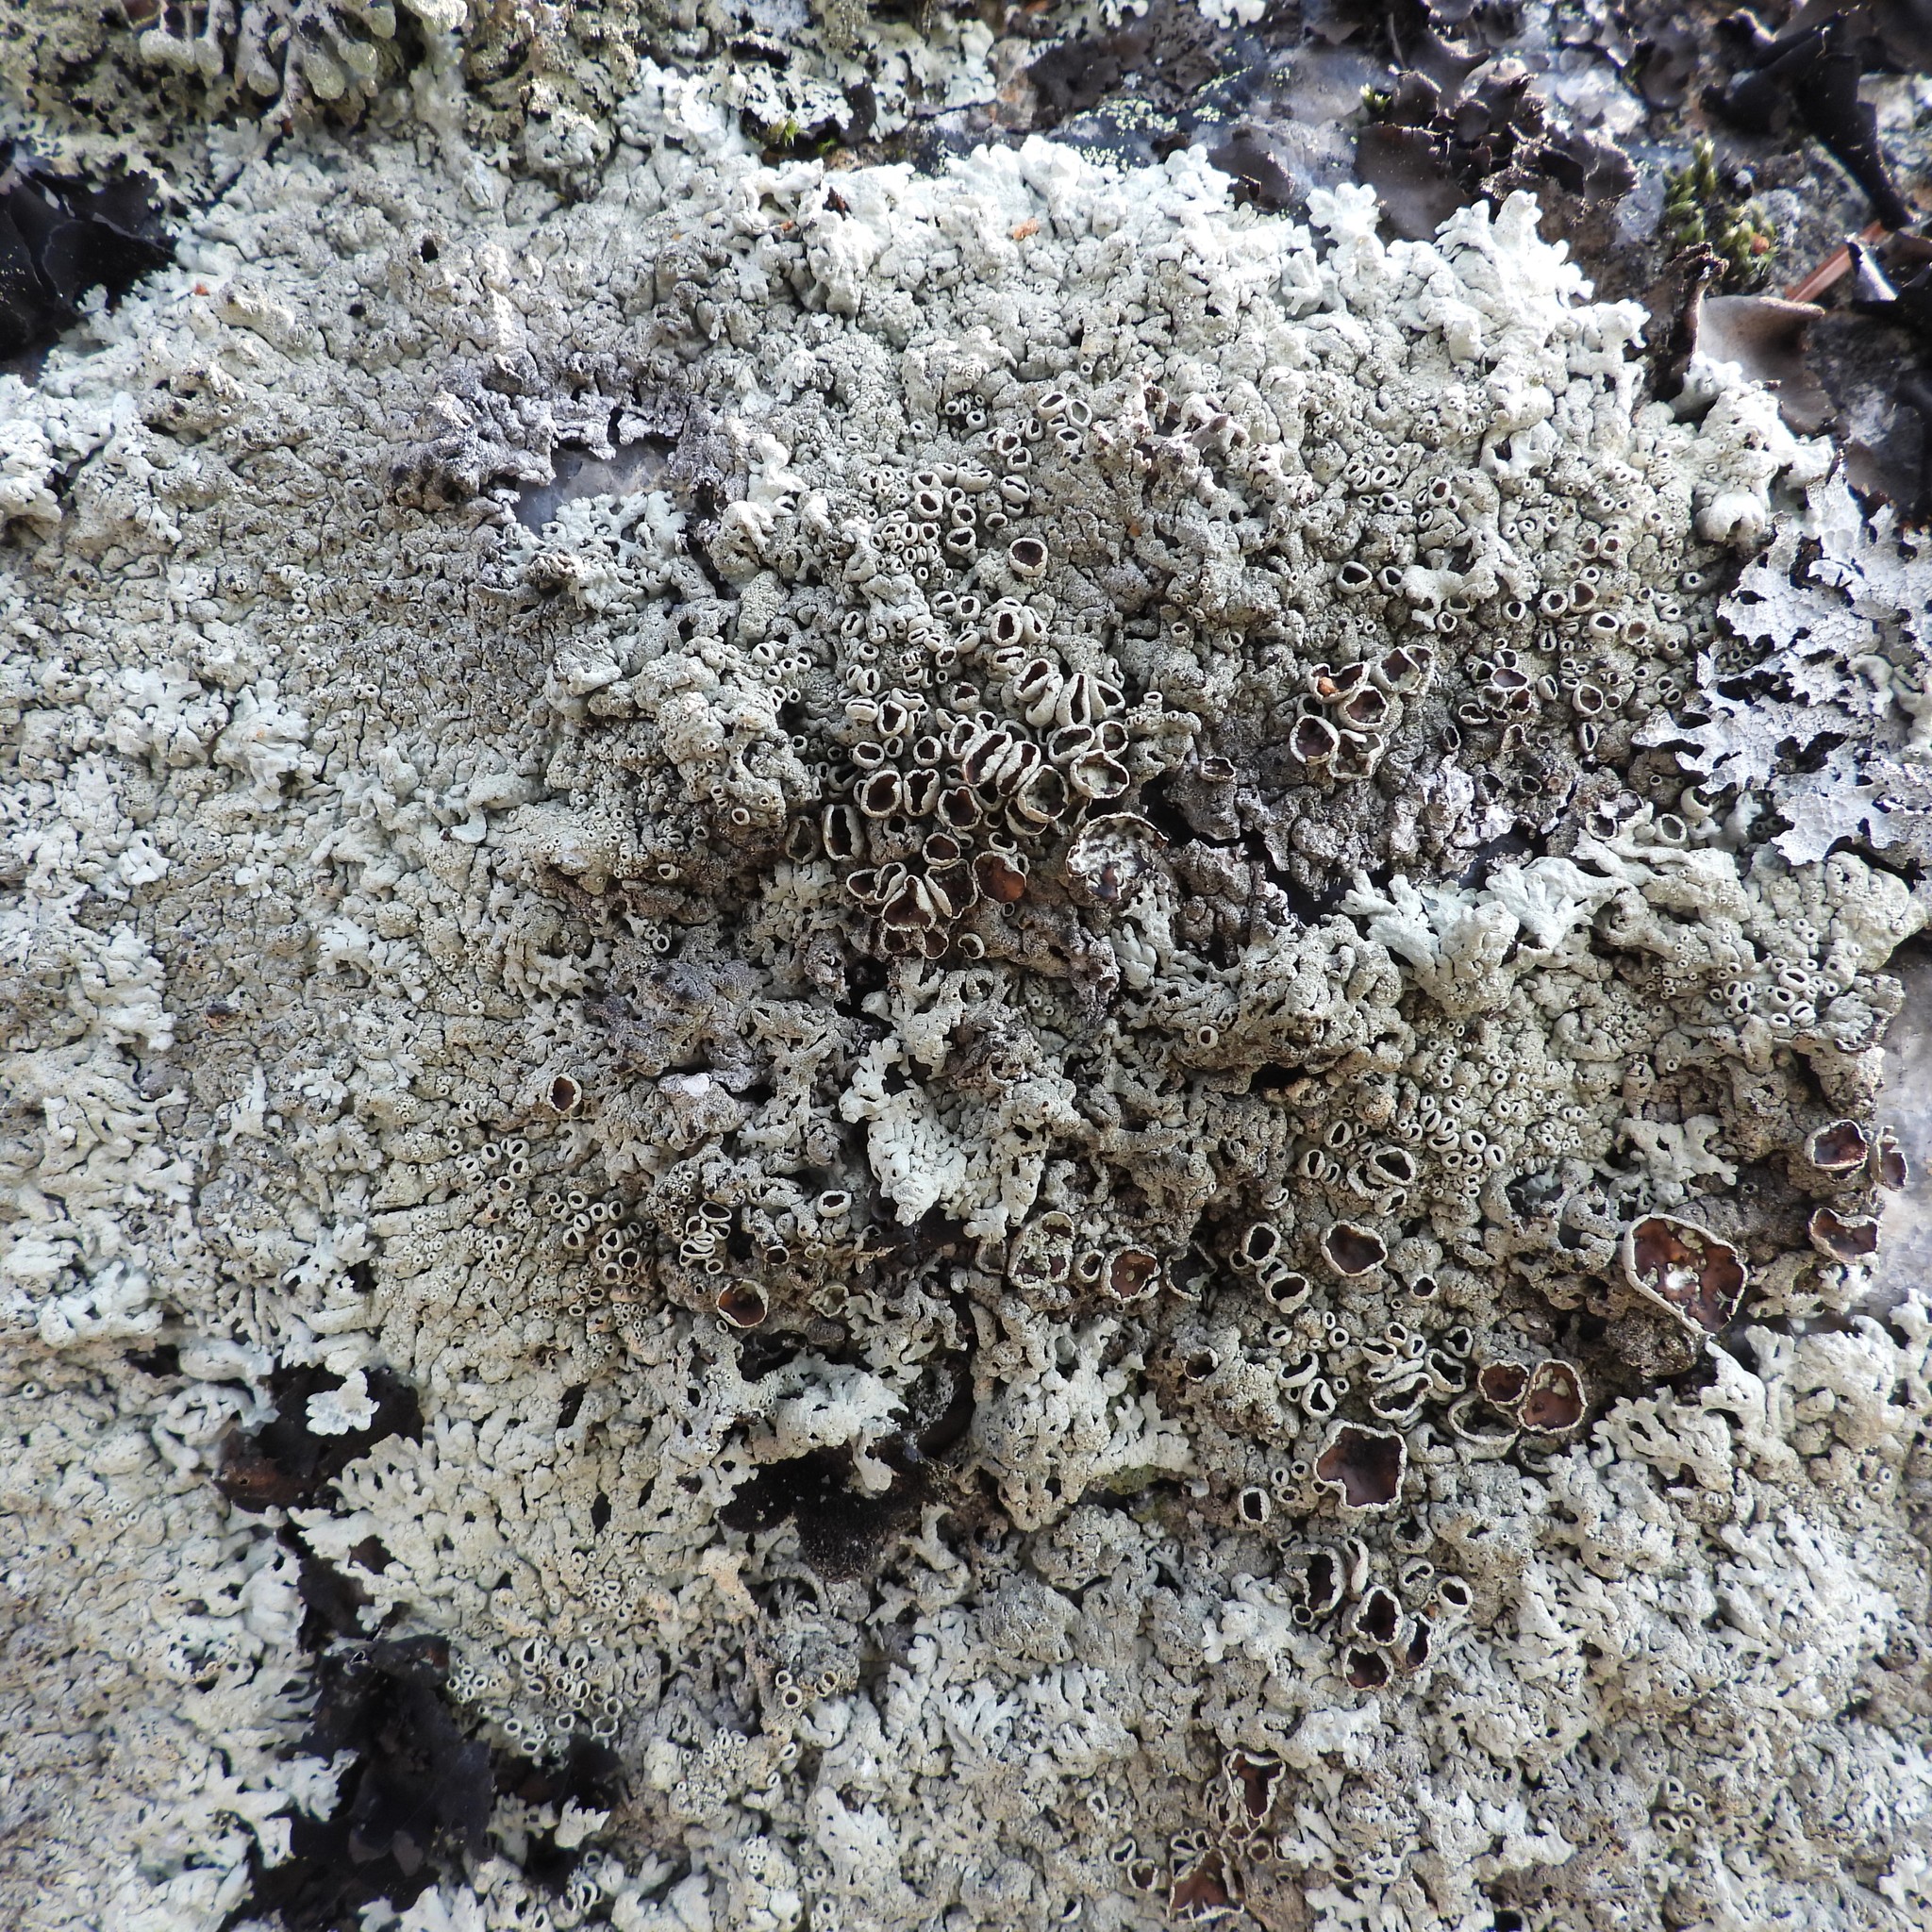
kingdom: Fungi
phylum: Ascomycota
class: Lecanoromycetes
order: Lecanorales
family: Parmeliaceae
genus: Arctoparmelia
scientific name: Arctoparmelia centrifuga
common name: Concentric ring lichen
